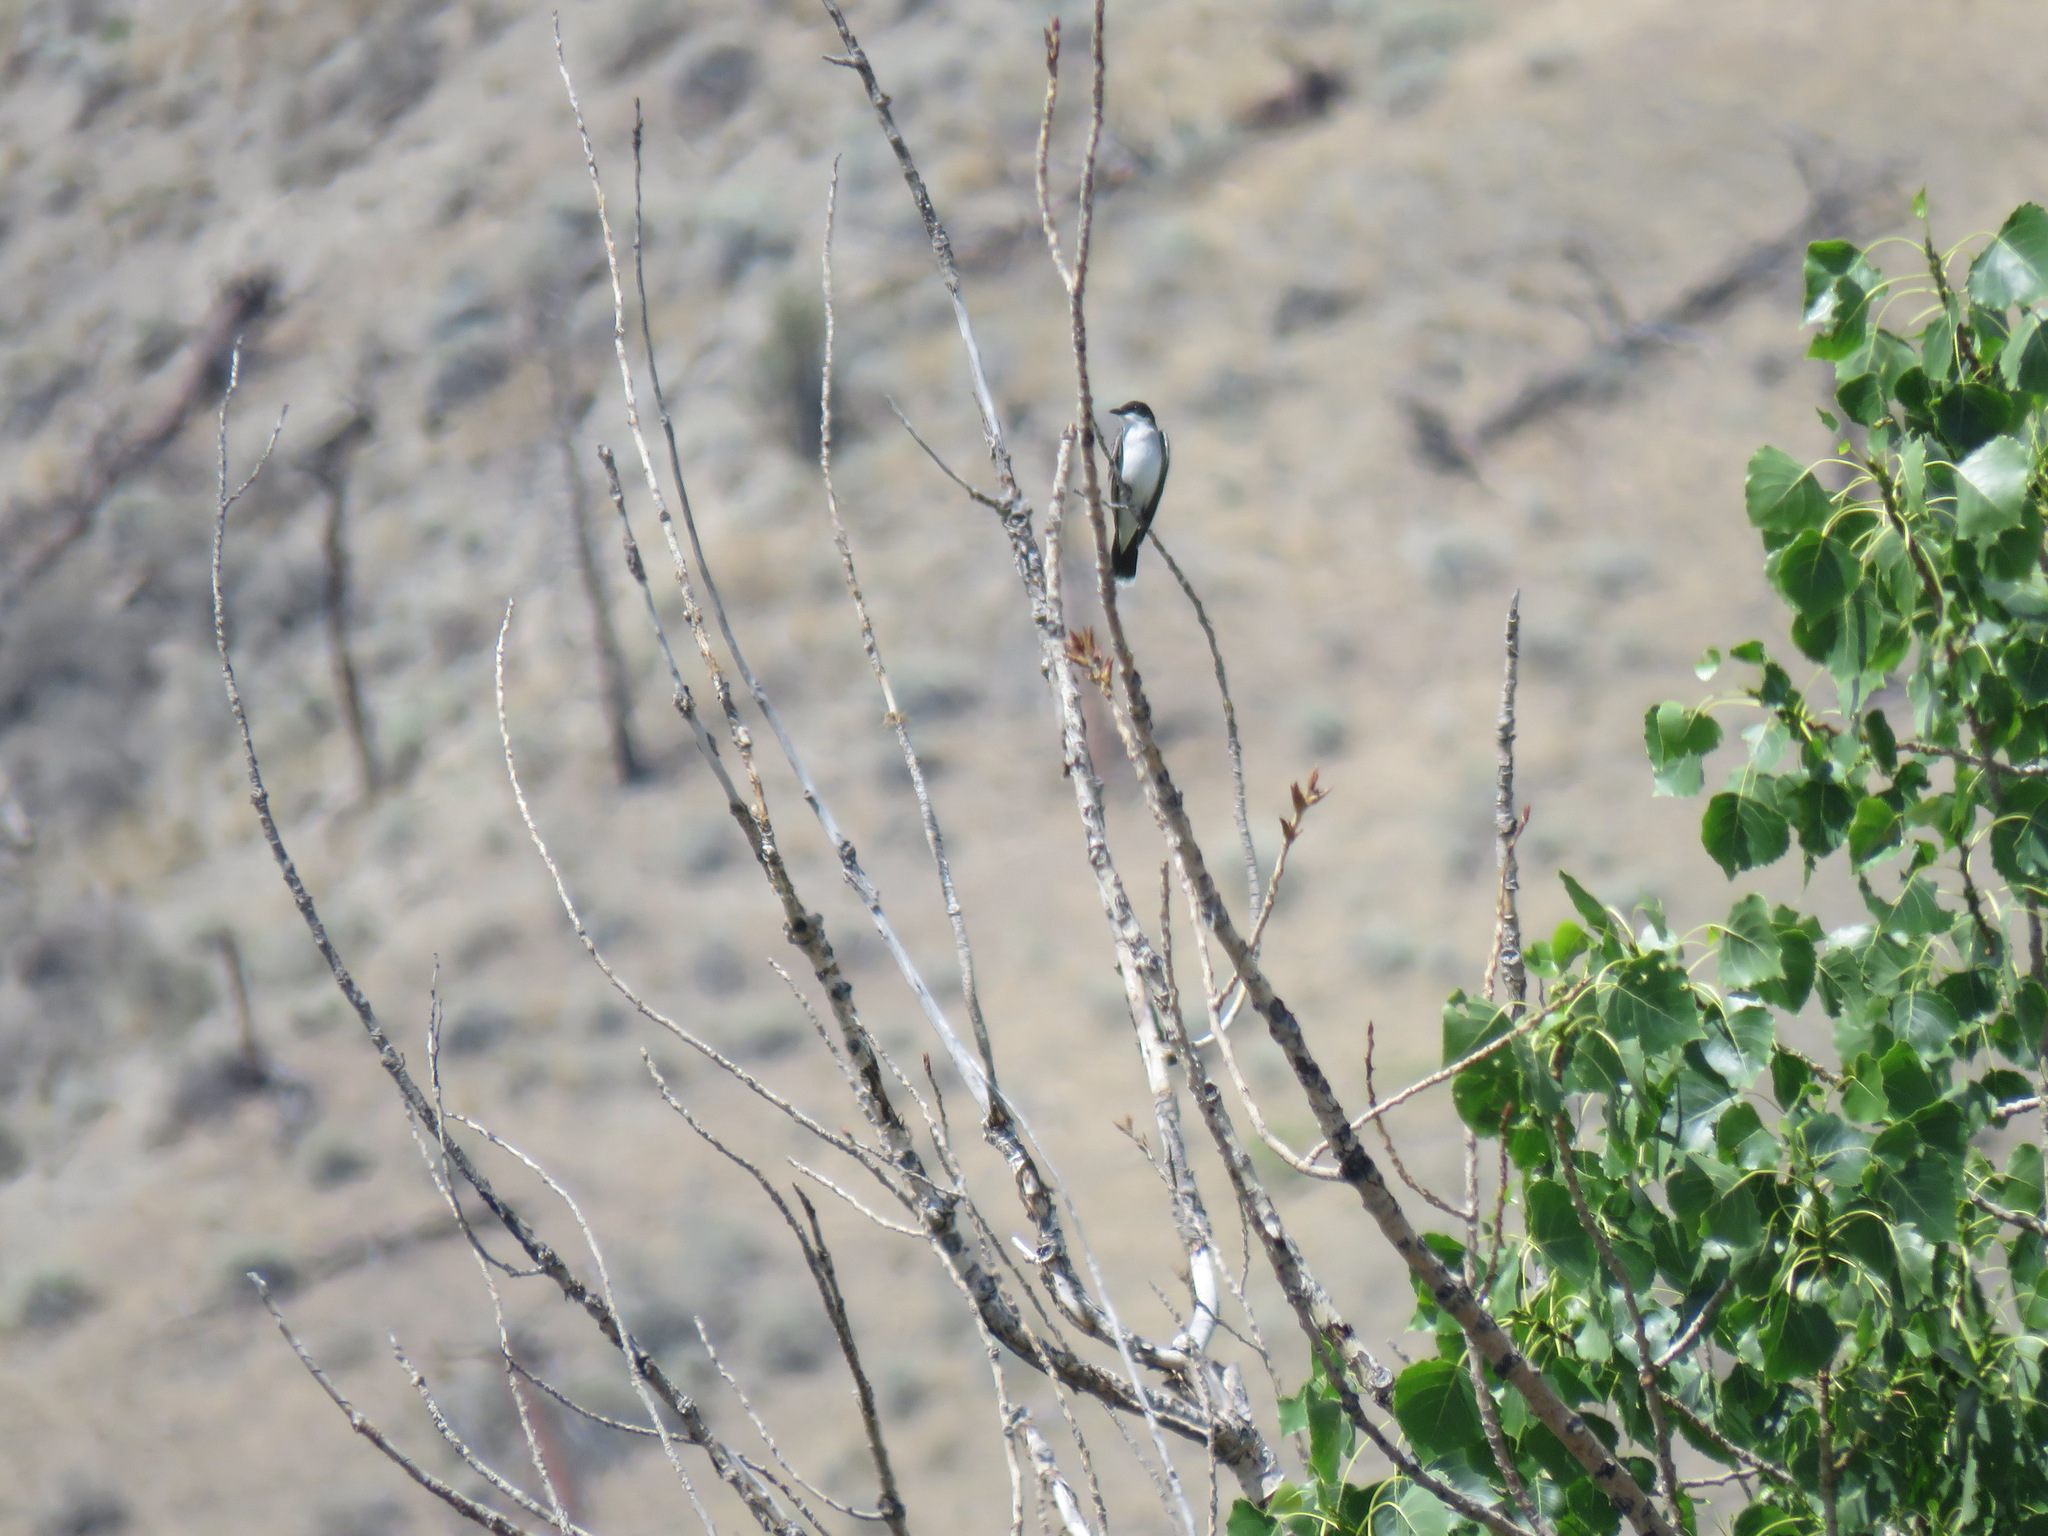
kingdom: Animalia
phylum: Chordata
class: Aves
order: Passeriformes
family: Tyrannidae
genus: Tyrannus
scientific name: Tyrannus tyrannus
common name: Eastern kingbird
